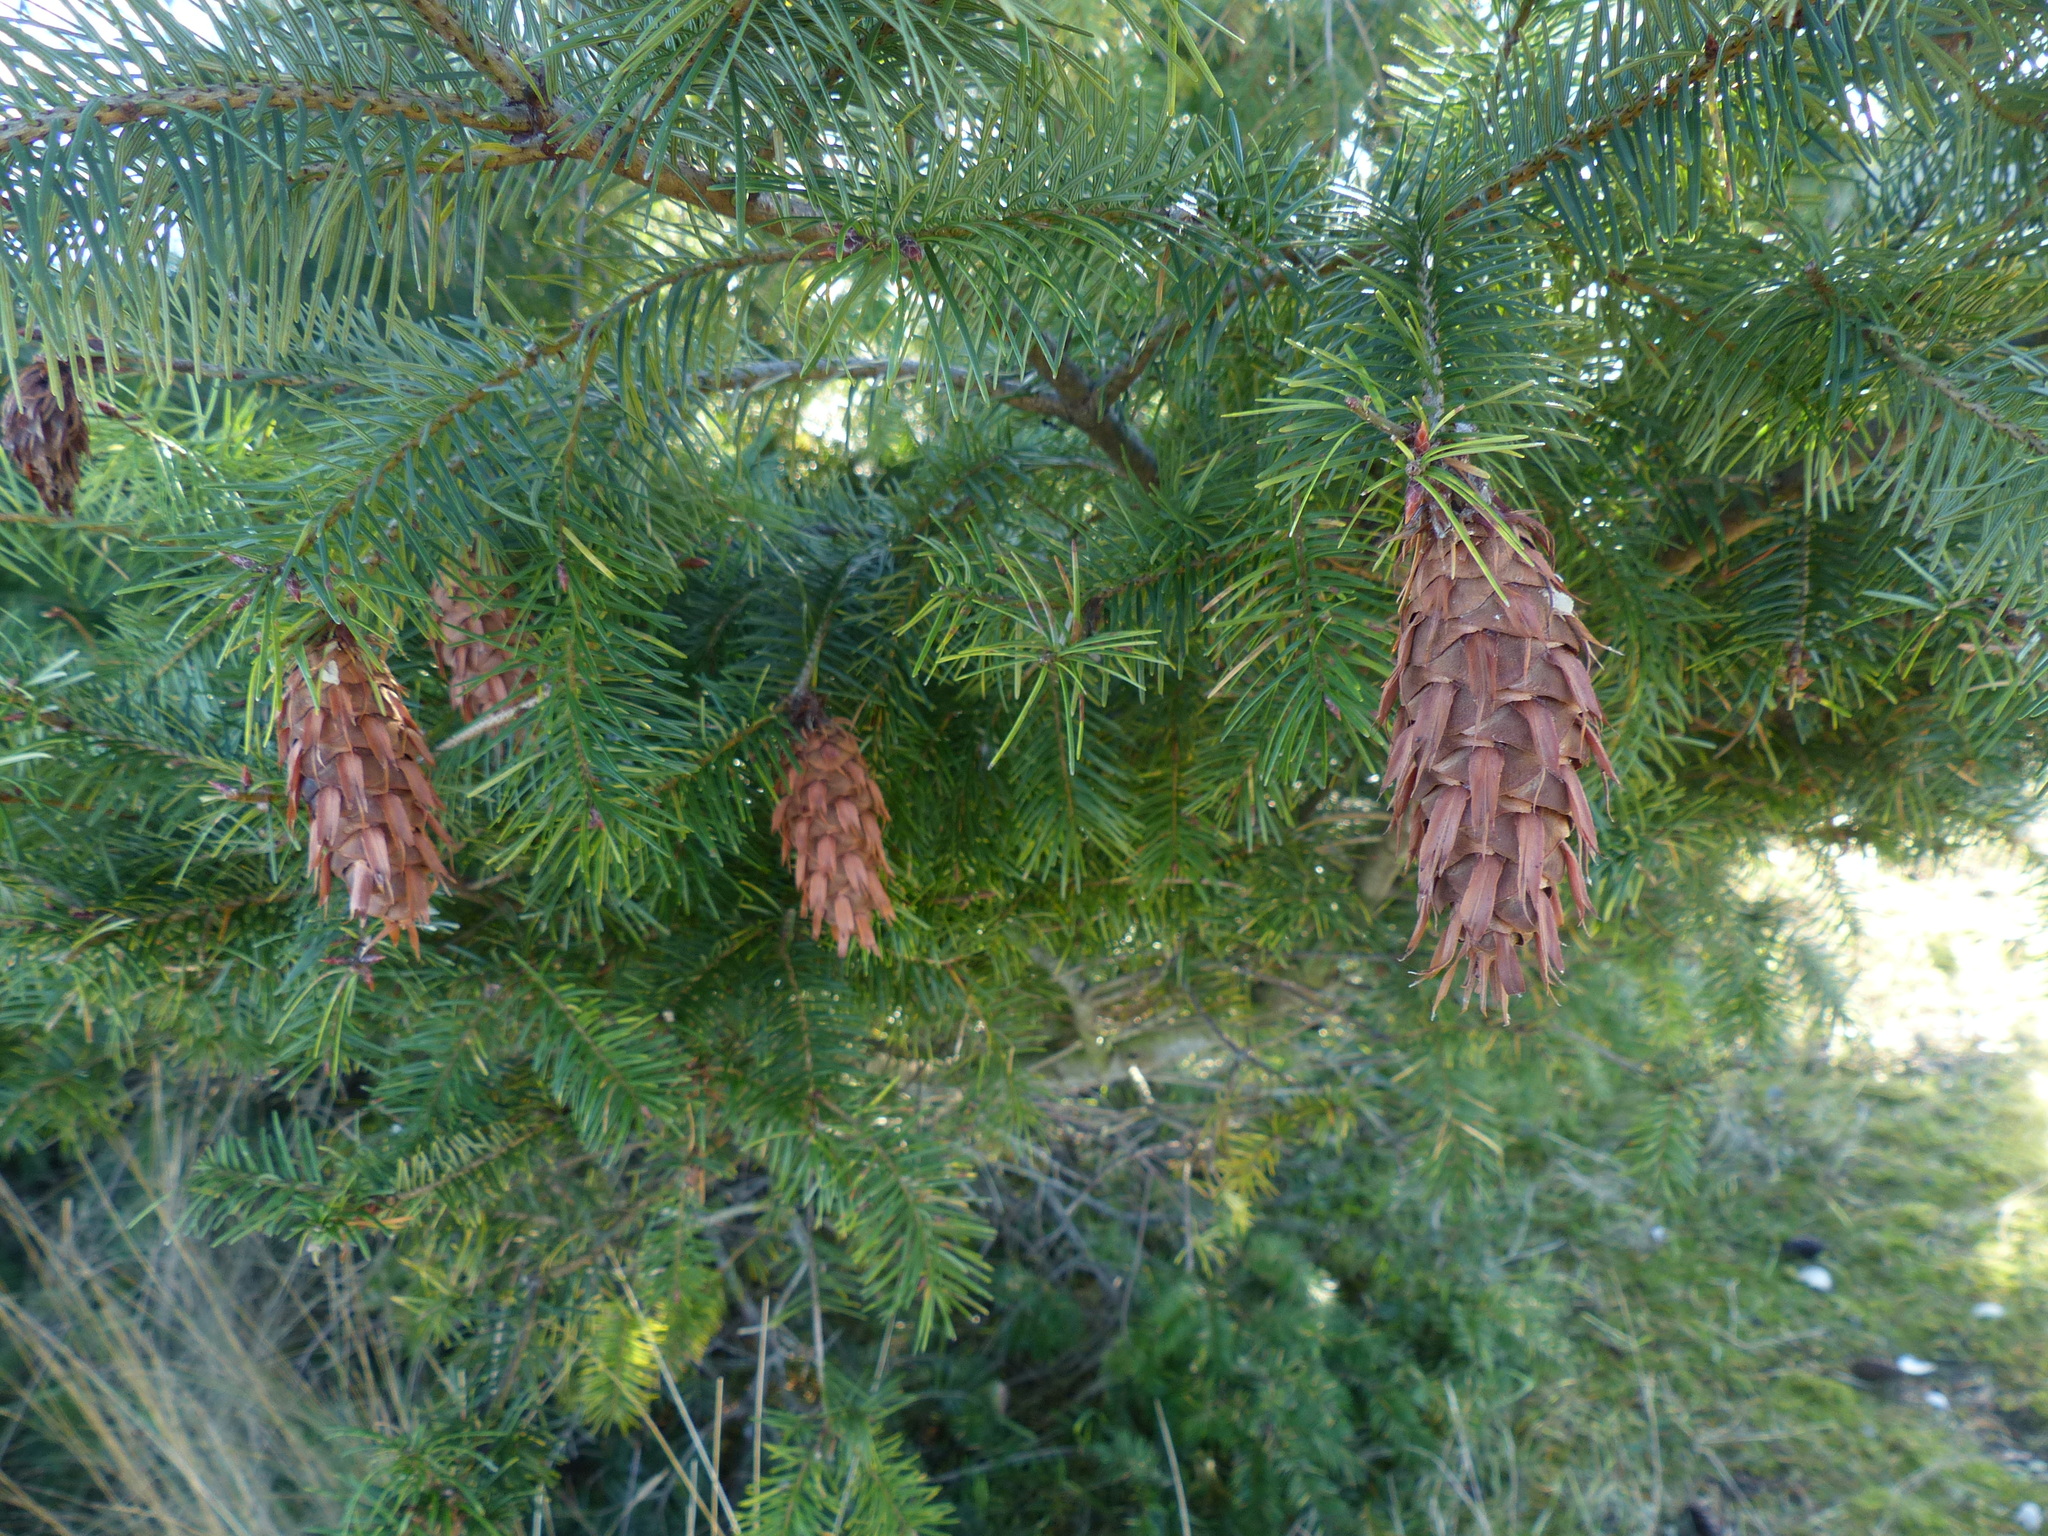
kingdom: Plantae
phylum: Tracheophyta
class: Pinopsida
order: Pinales
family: Pinaceae
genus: Pseudotsuga
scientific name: Pseudotsuga menziesii
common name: Douglas fir
